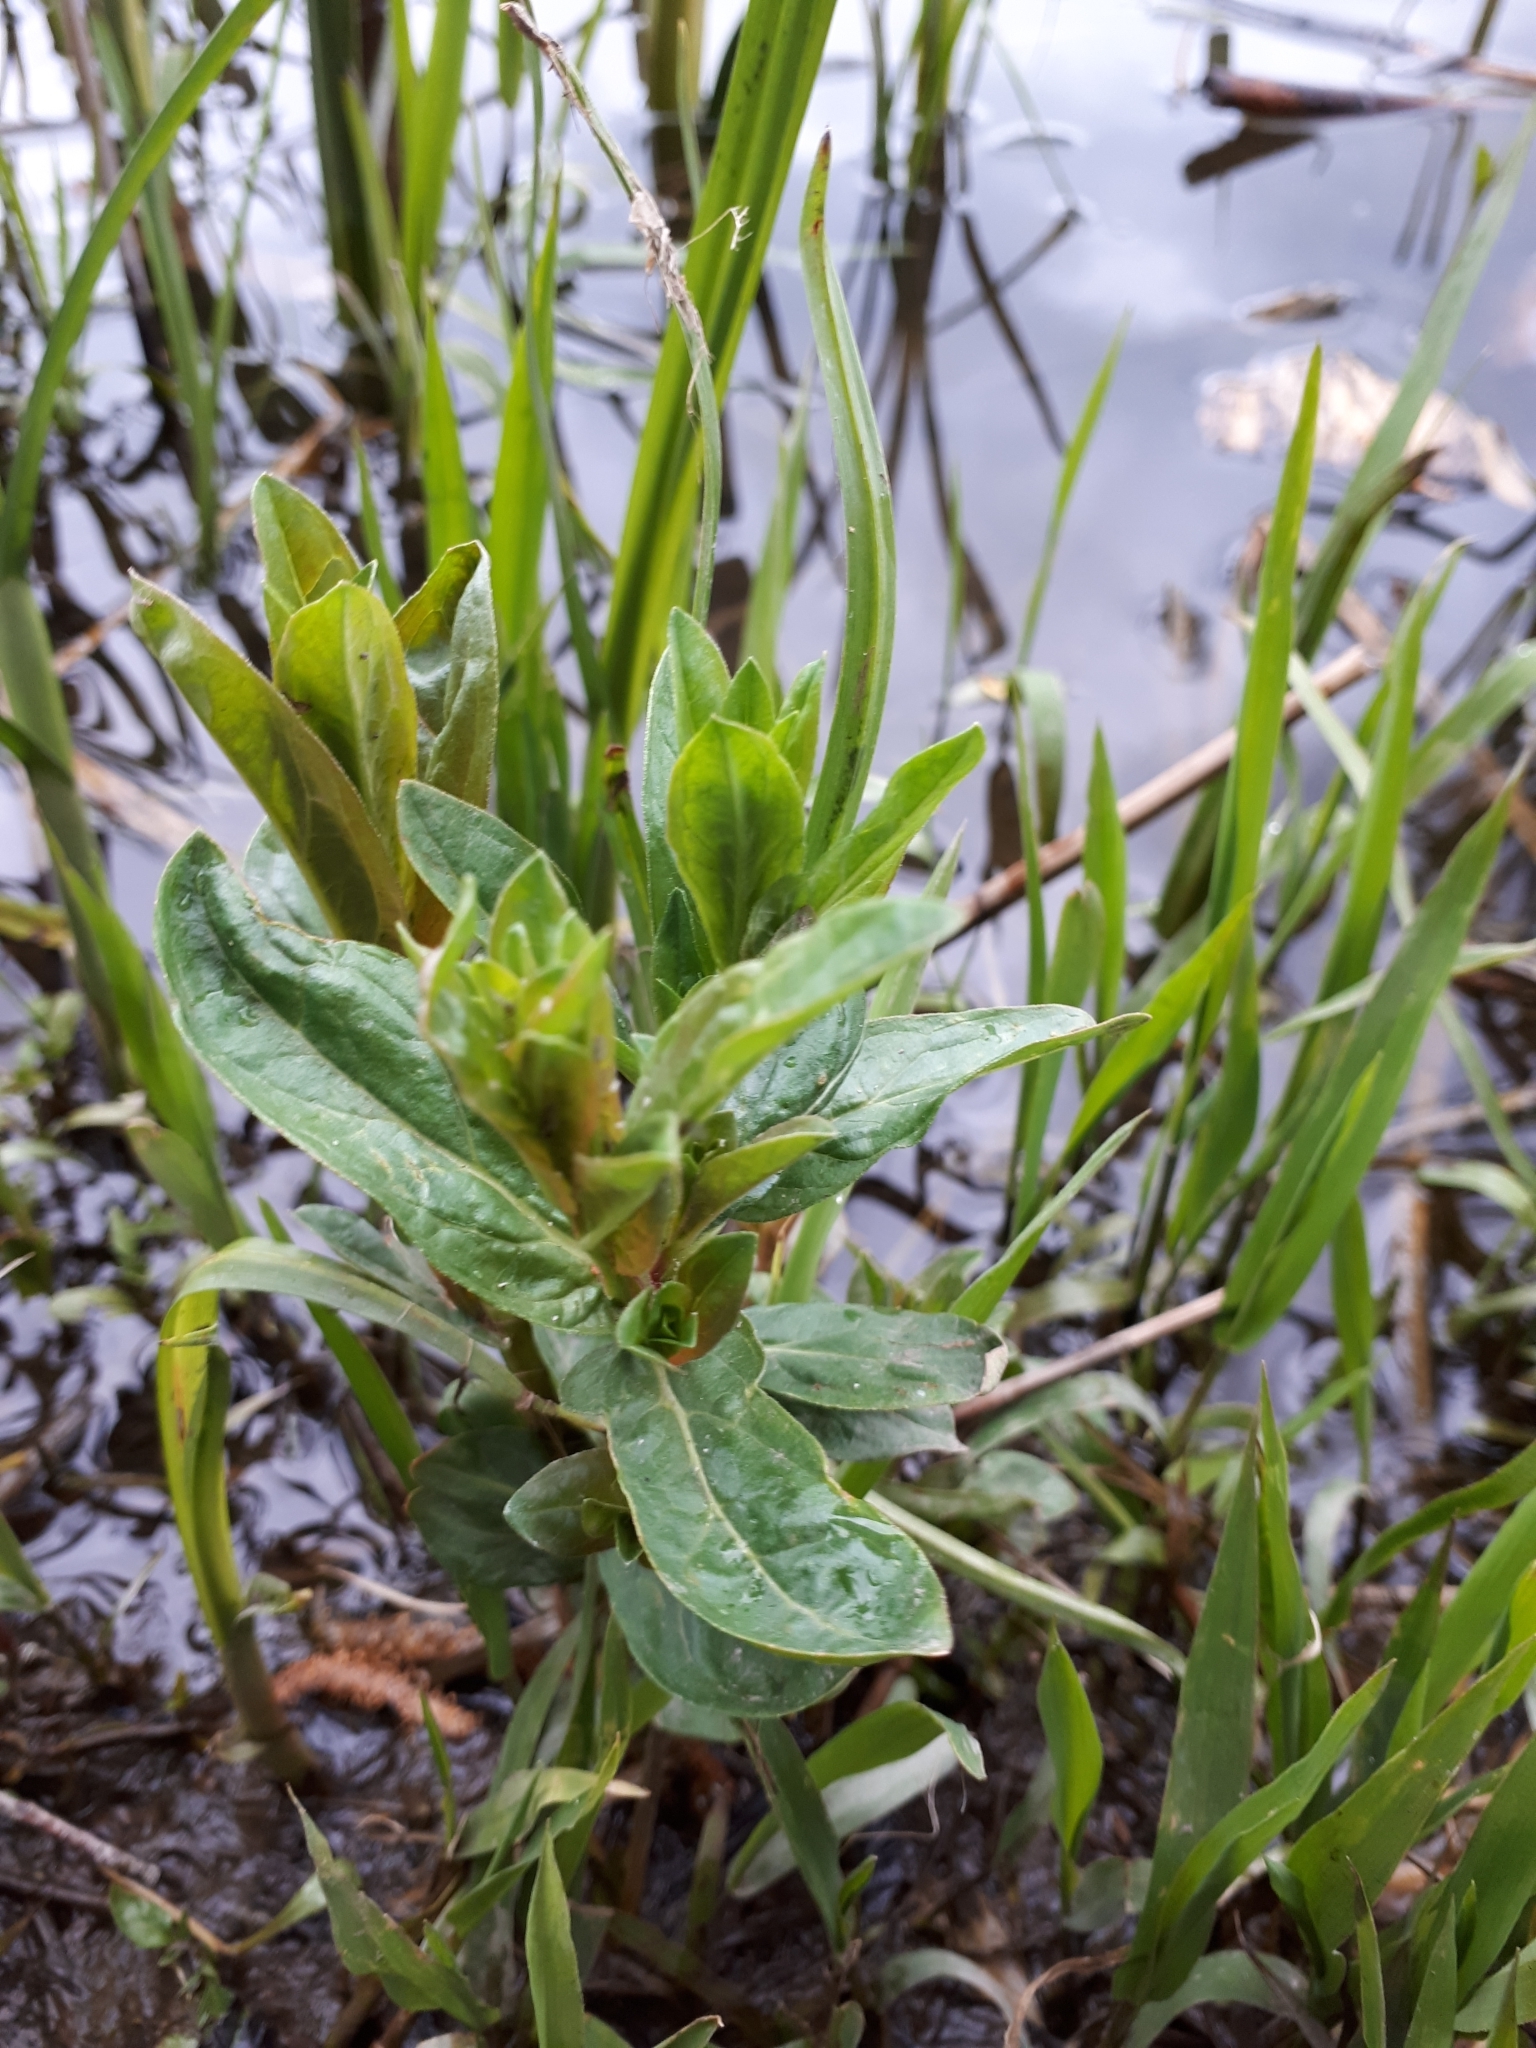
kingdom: Plantae
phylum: Tracheophyta
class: Magnoliopsida
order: Myrtales
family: Lythraceae
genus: Lythrum
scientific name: Lythrum salicaria
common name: Purple loosestrife
